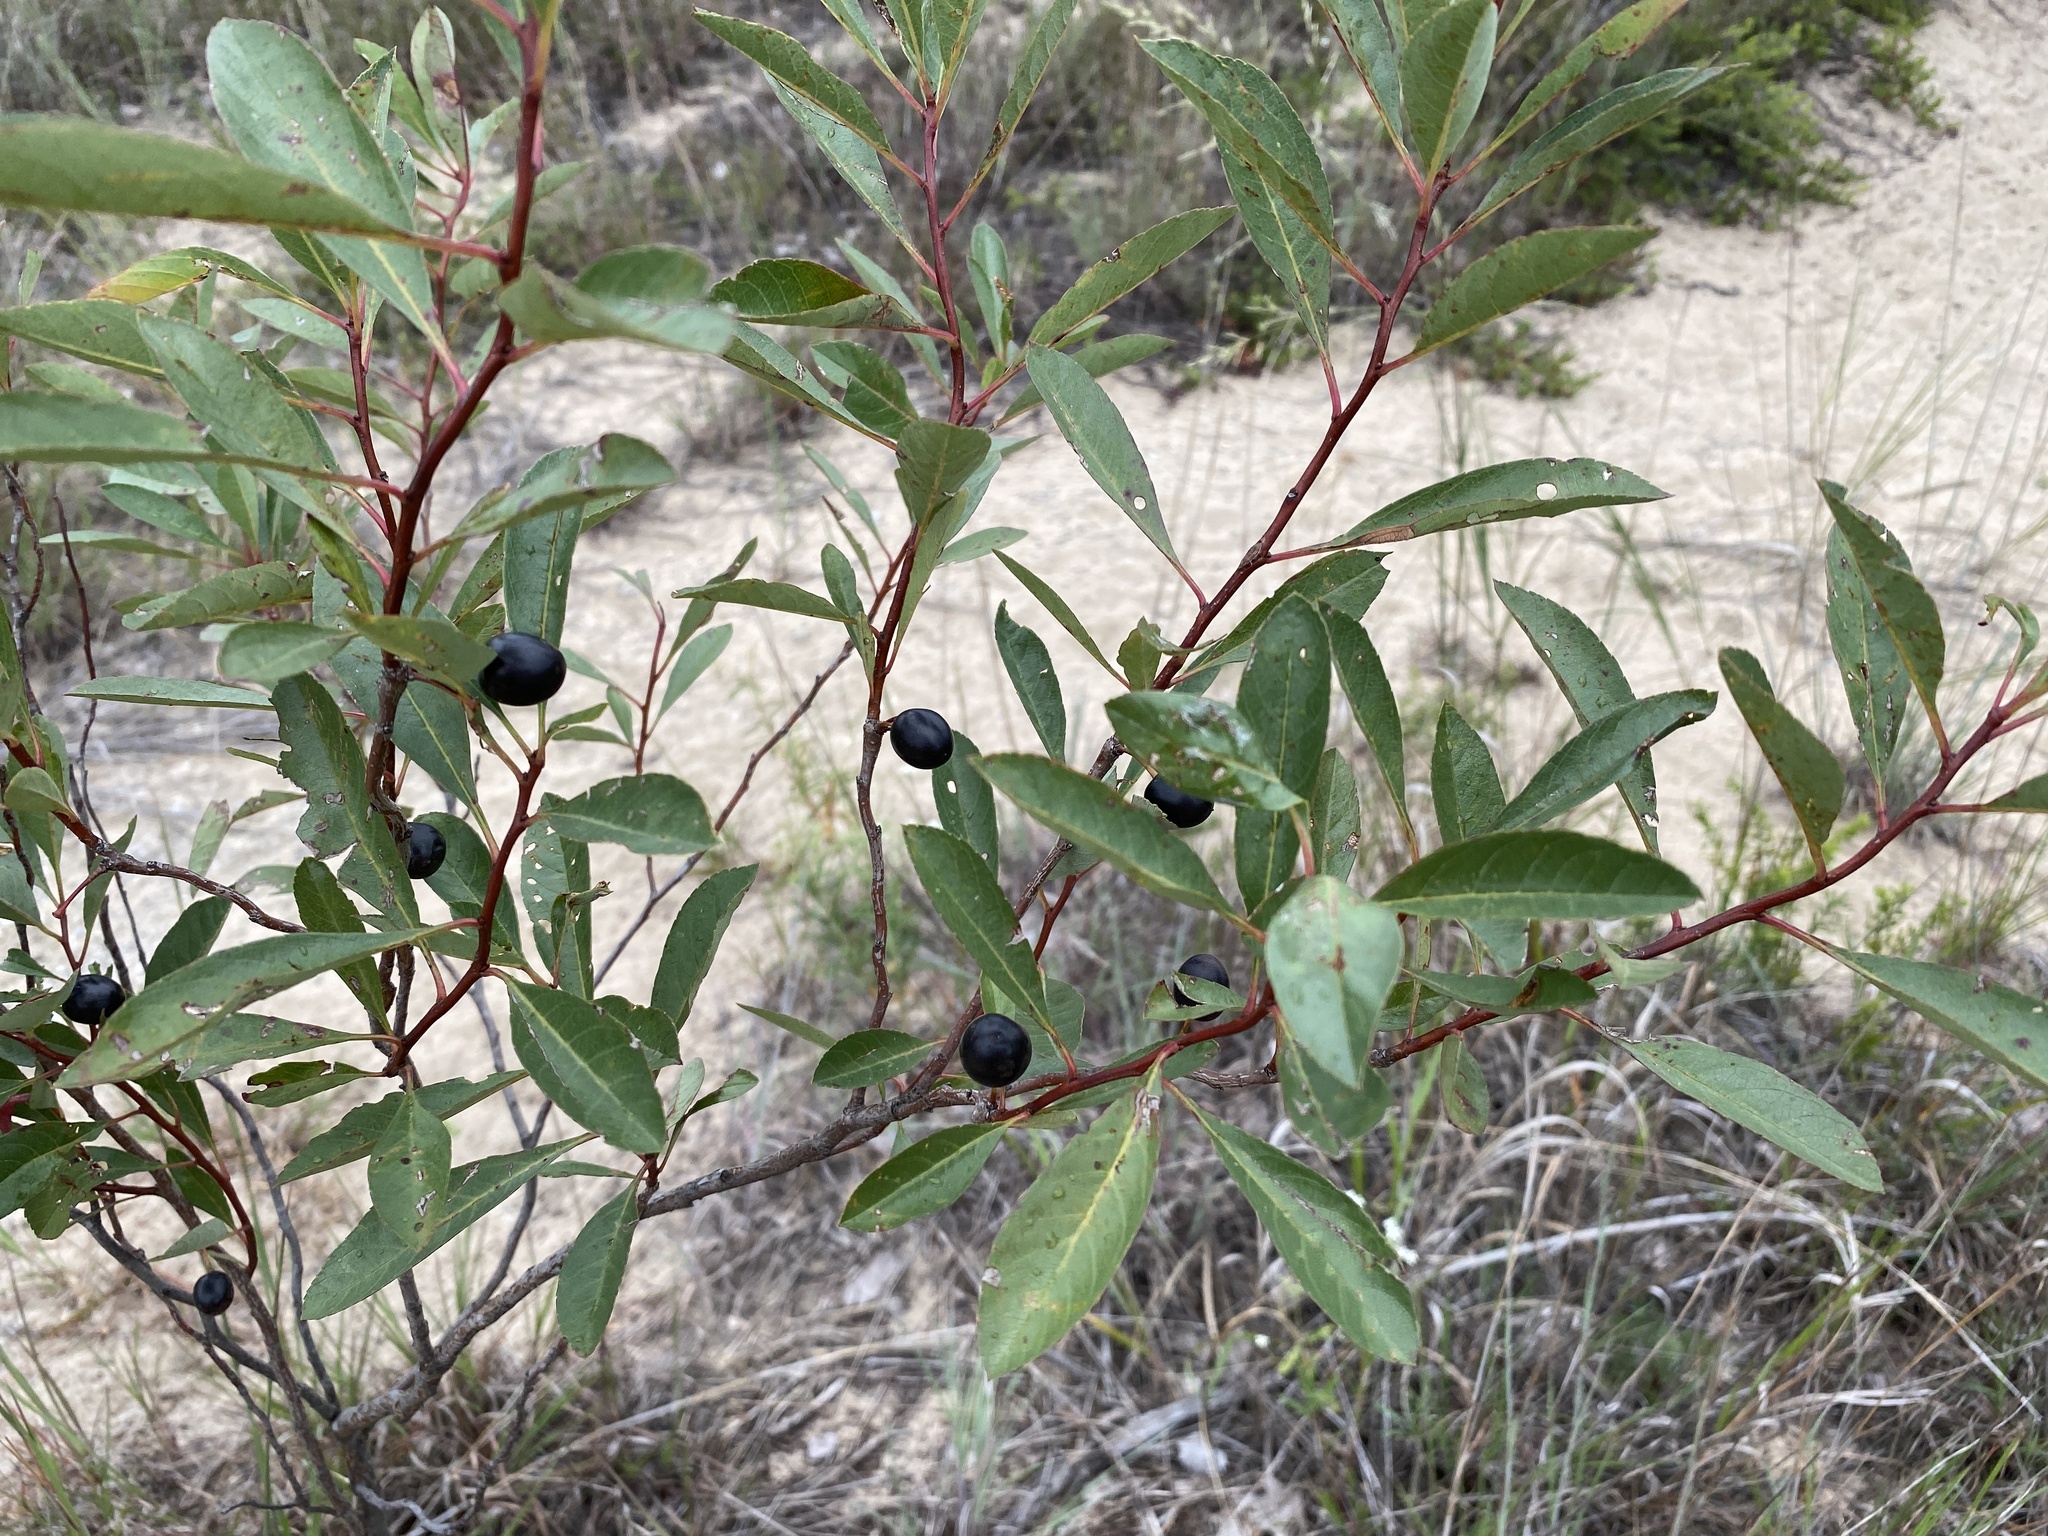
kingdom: Plantae
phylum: Tracheophyta
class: Magnoliopsida
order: Rosales
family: Rosaceae
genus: Prunus
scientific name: Prunus pumila
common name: Dwarf cherry
